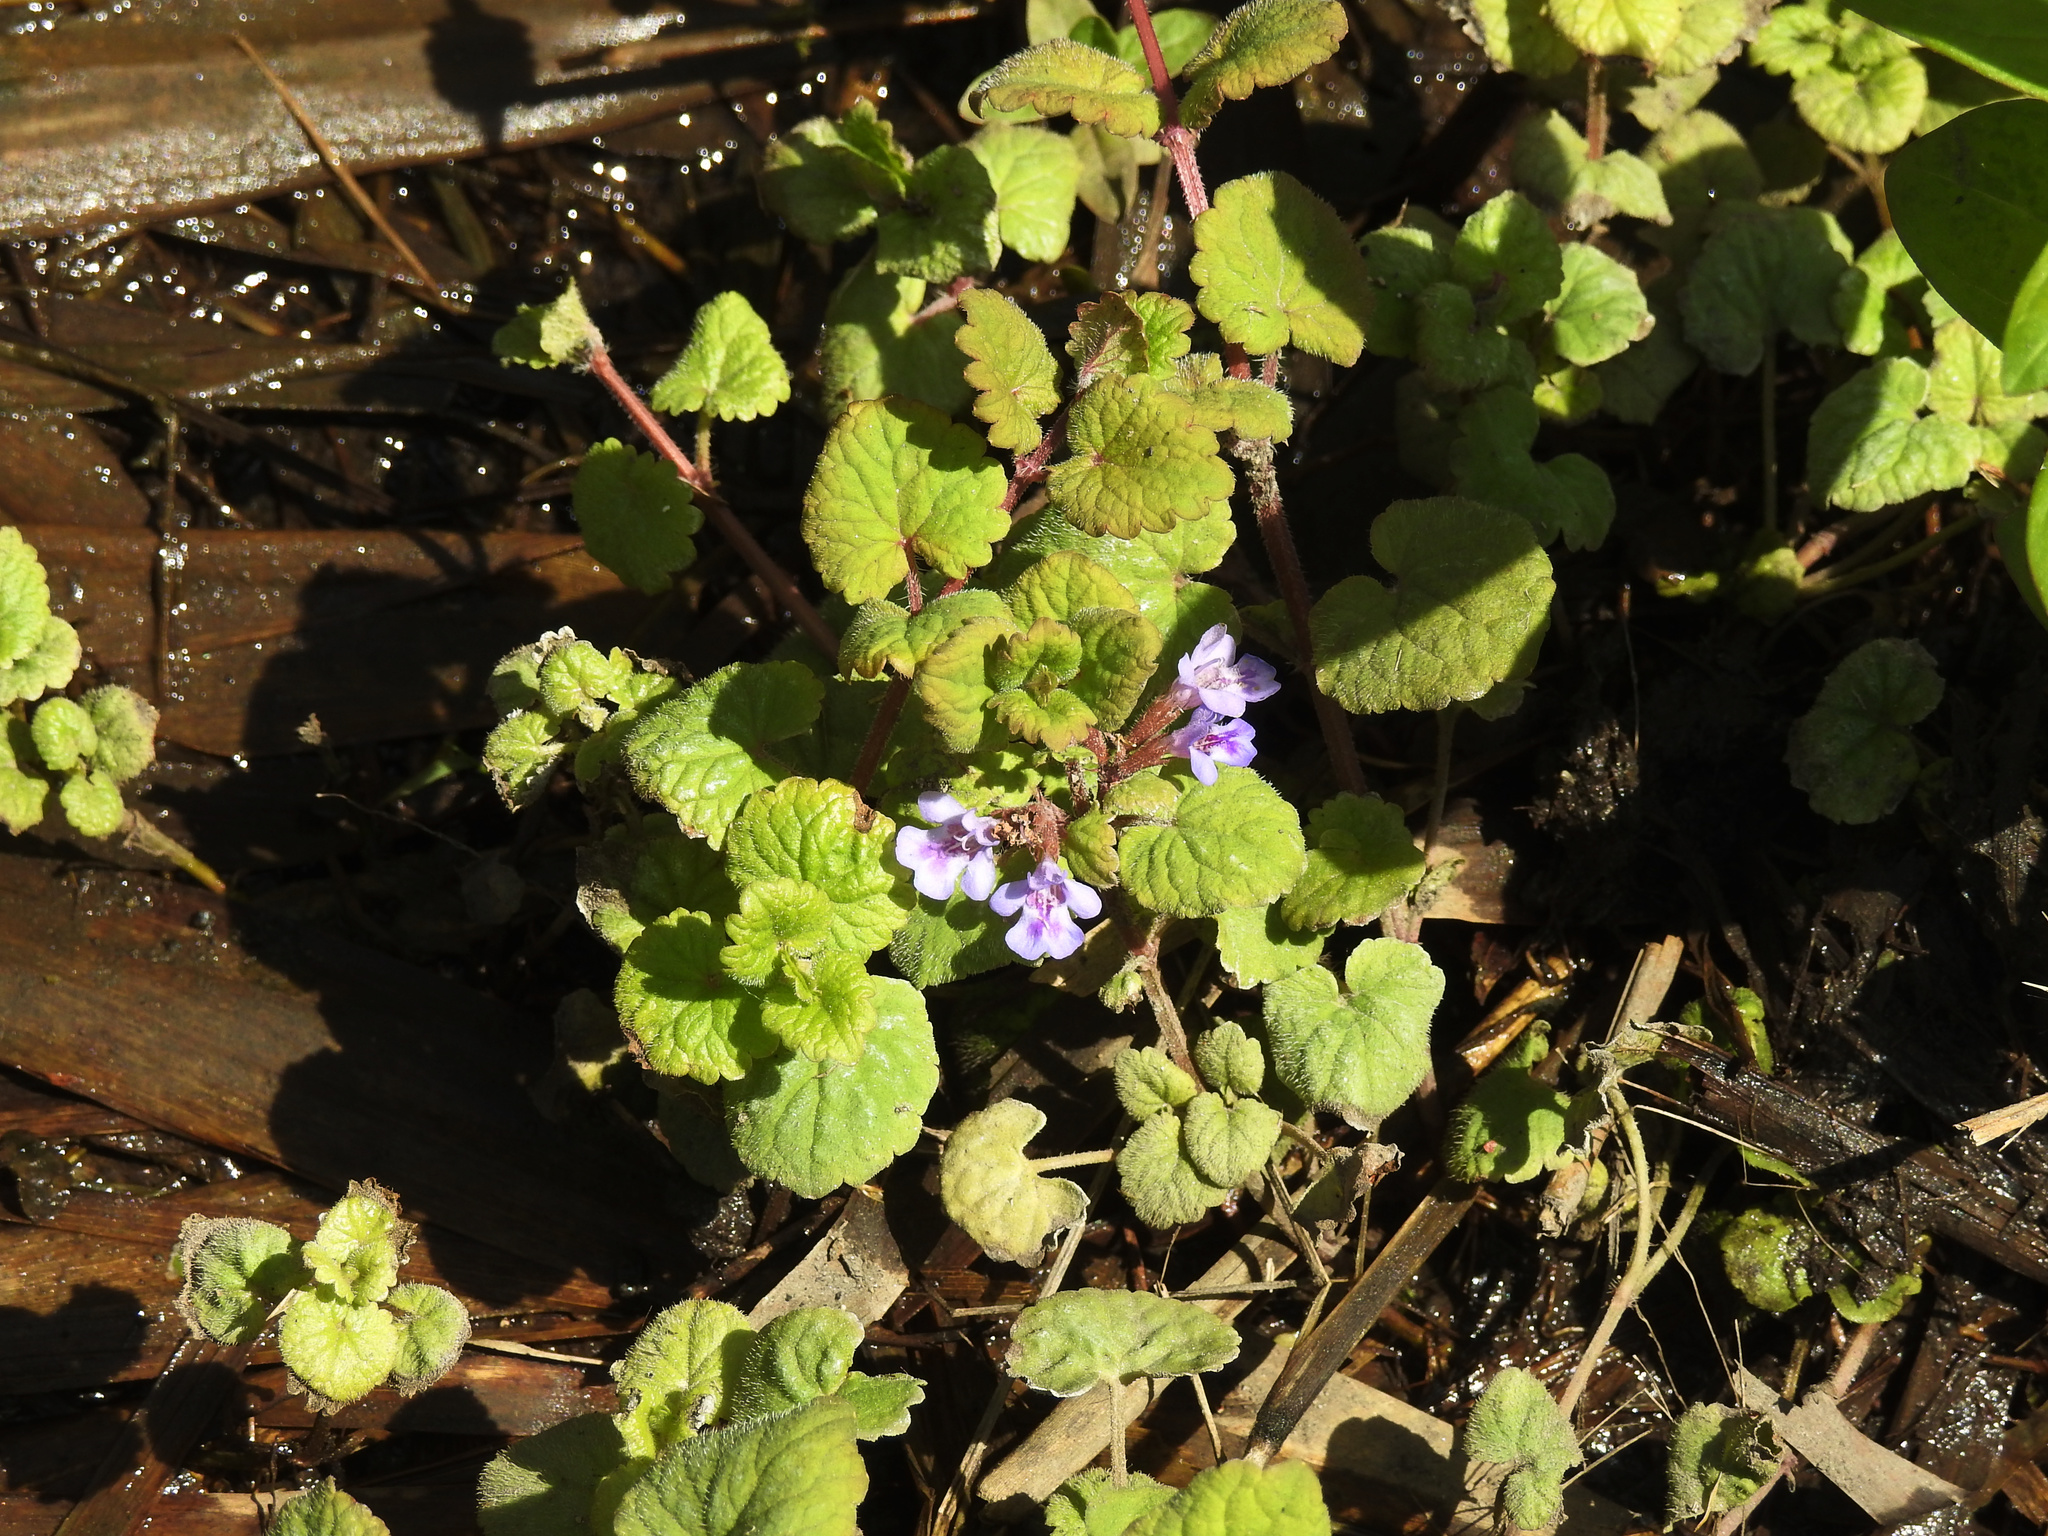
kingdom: Plantae
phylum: Tracheophyta
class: Magnoliopsida
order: Lamiales
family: Lamiaceae
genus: Glechoma
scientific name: Glechoma hederacea
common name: Ground ivy
